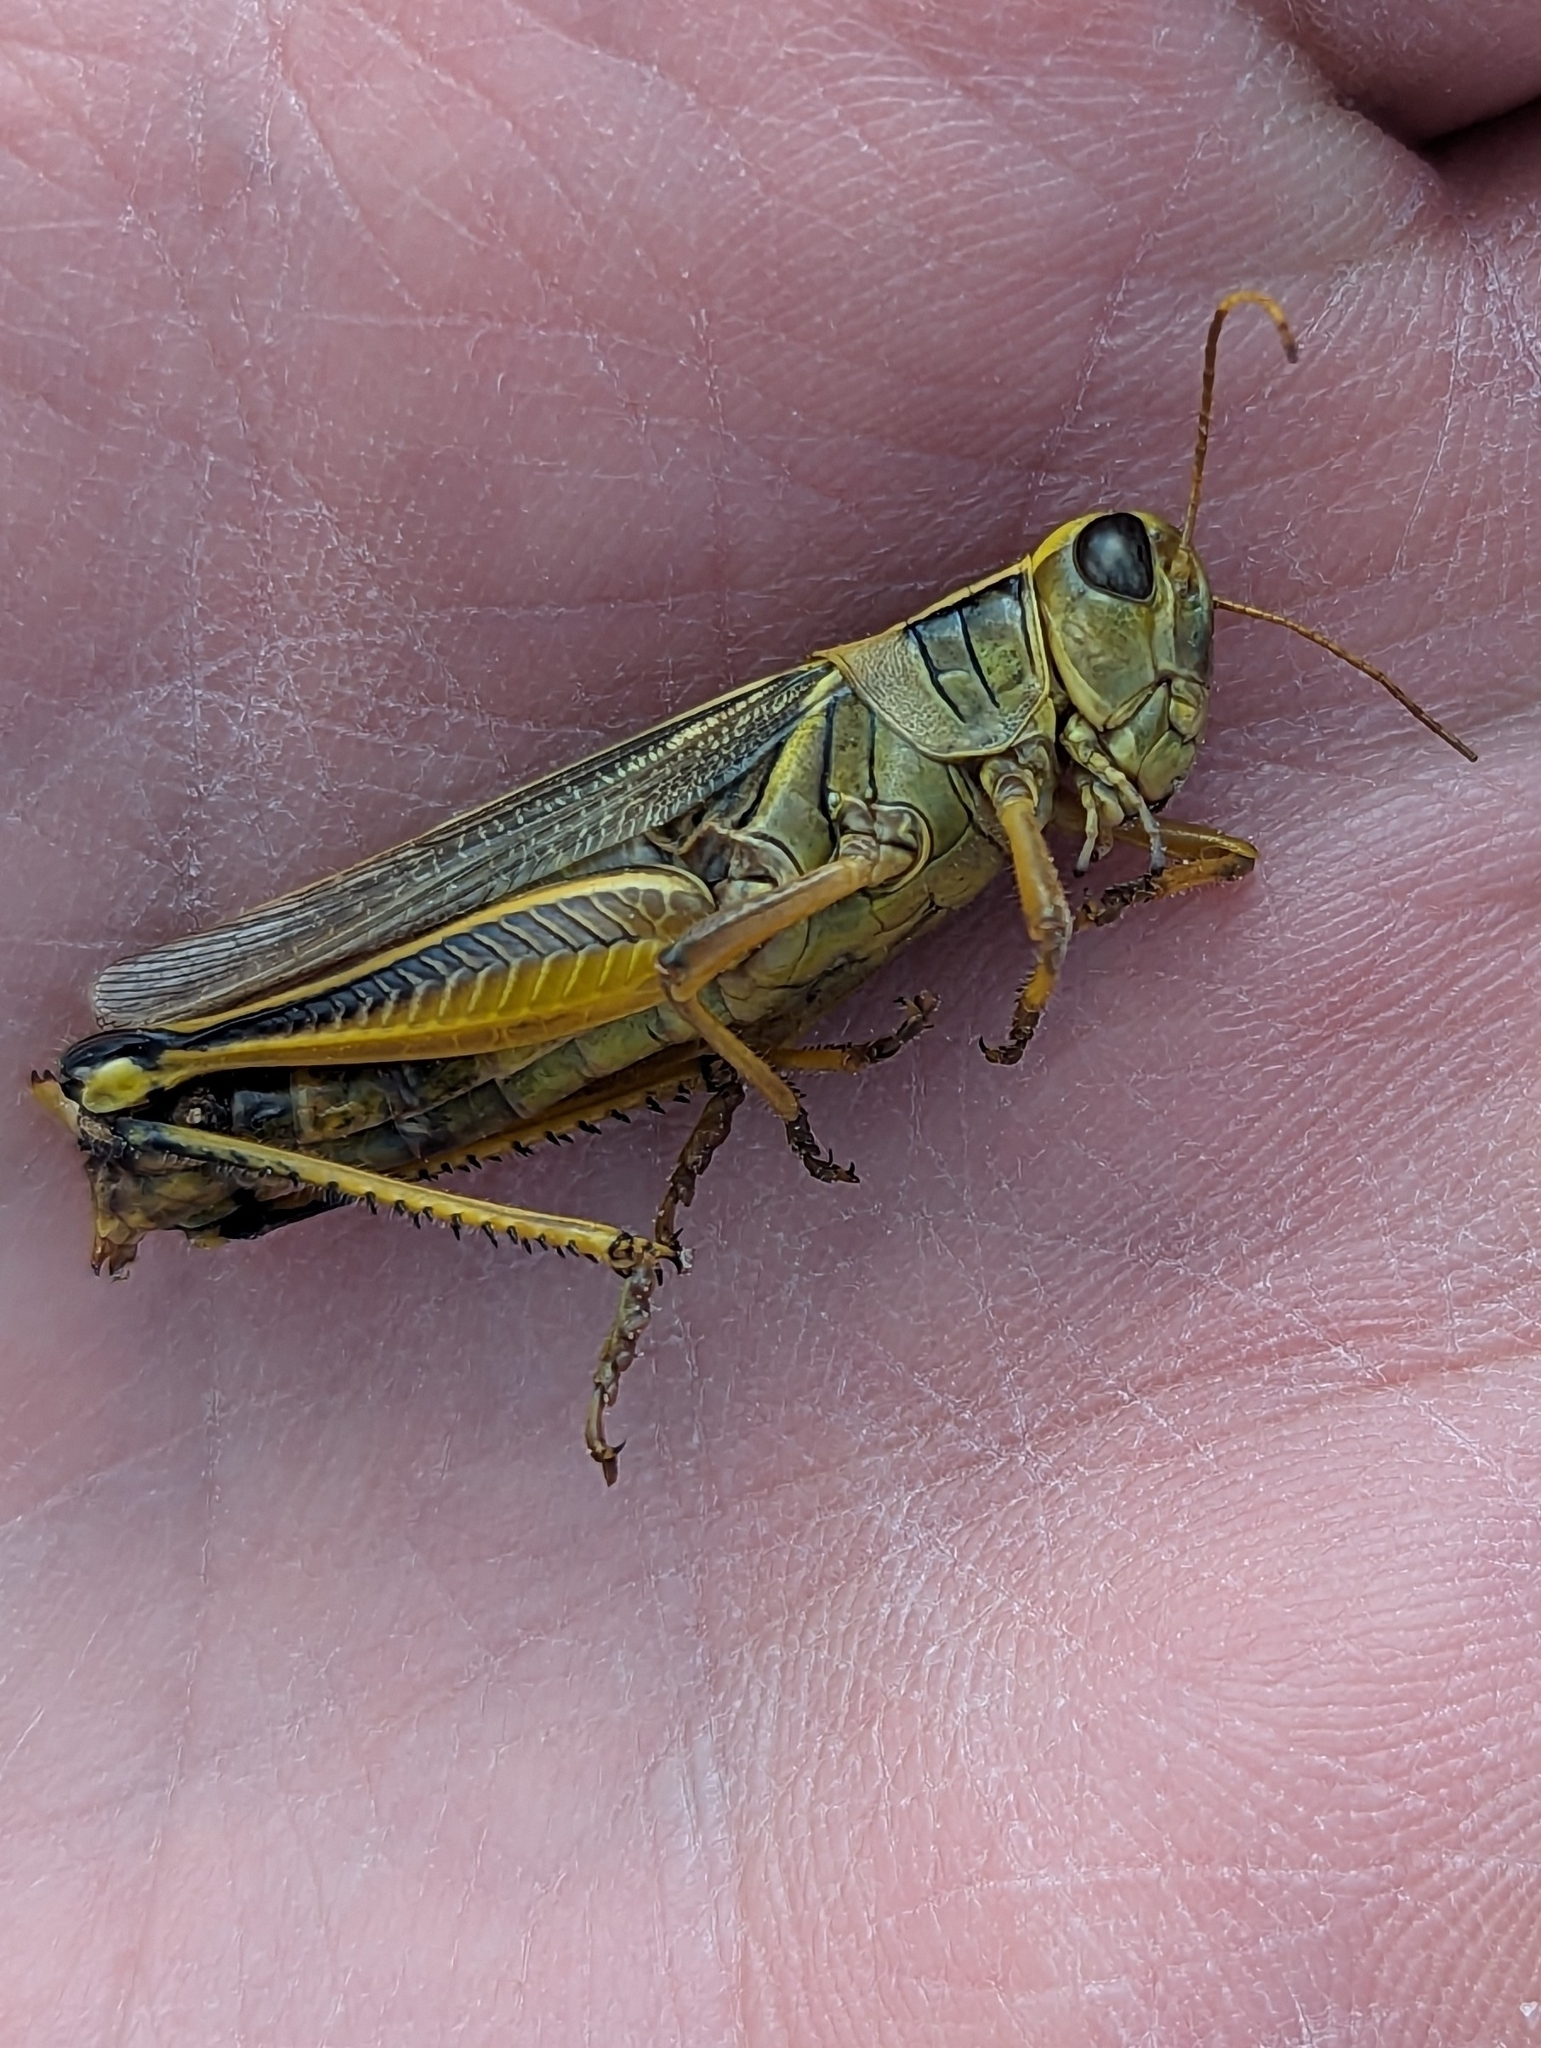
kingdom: Animalia
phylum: Arthropoda
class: Insecta
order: Orthoptera
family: Acrididae
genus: Melanoplus
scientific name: Melanoplus bivittatus
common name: Two-striped grasshopper
